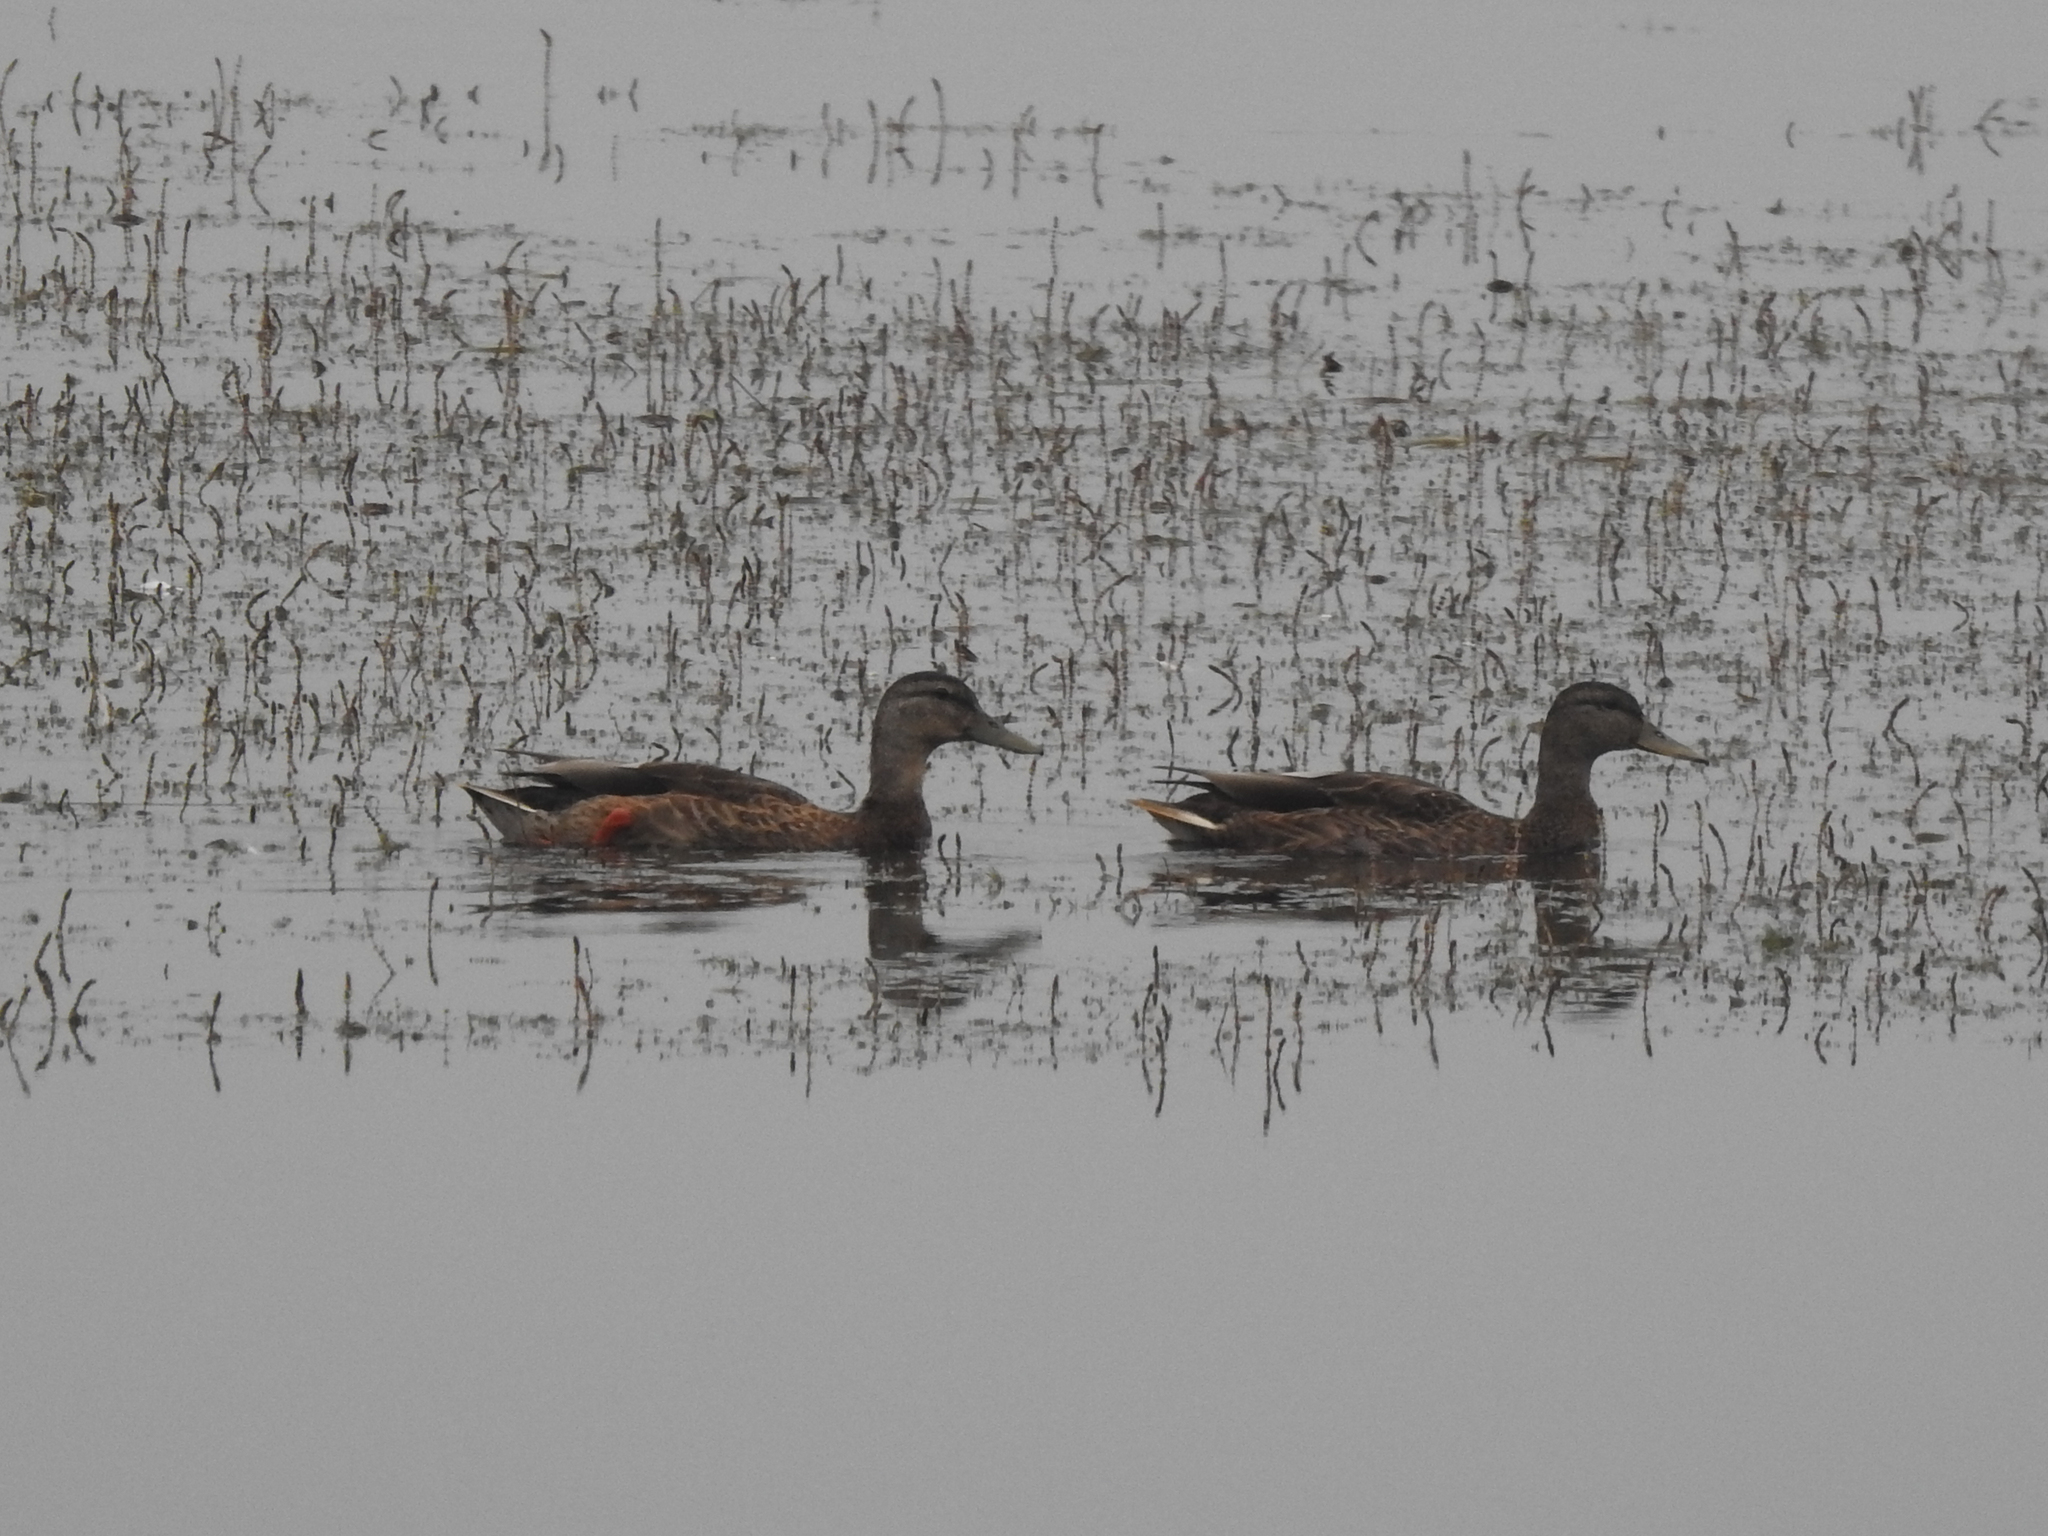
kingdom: Animalia
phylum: Chordata
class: Aves
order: Anseriformes
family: Anatidae
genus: Anas
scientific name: Anas platyrhynchos
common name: Mallard
